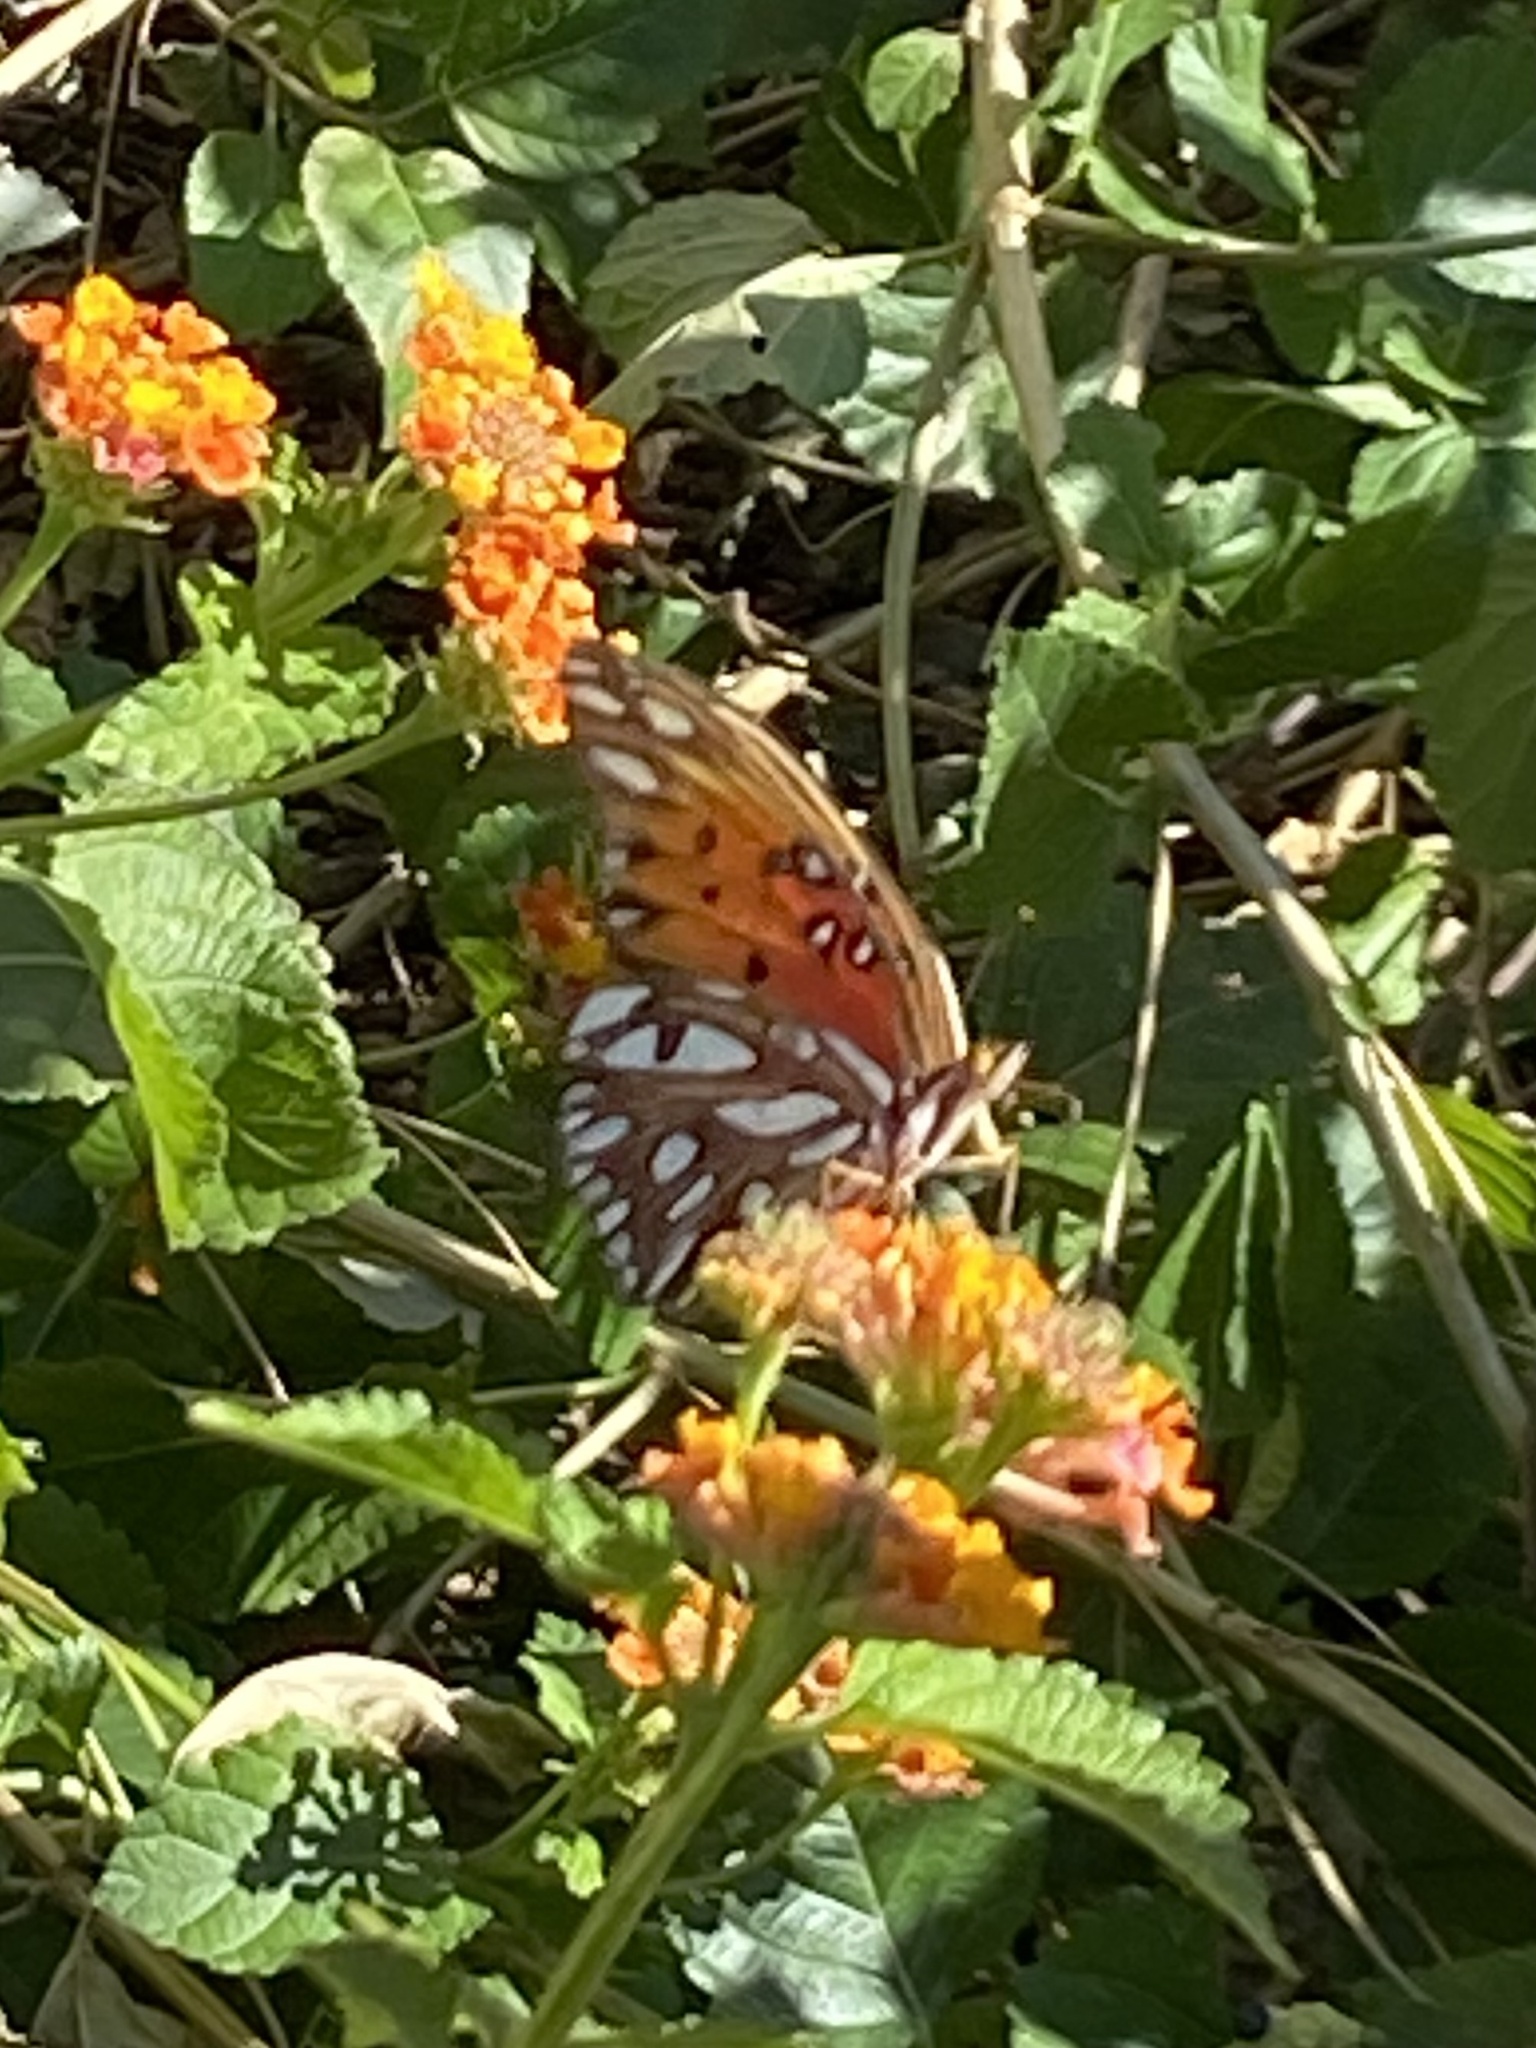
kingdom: Animalia
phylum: Arthropoda
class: Insecta
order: Lepidoptera
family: Nymphalidae
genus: Dione
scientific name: Dione vanillae
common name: Gulf fritillary
